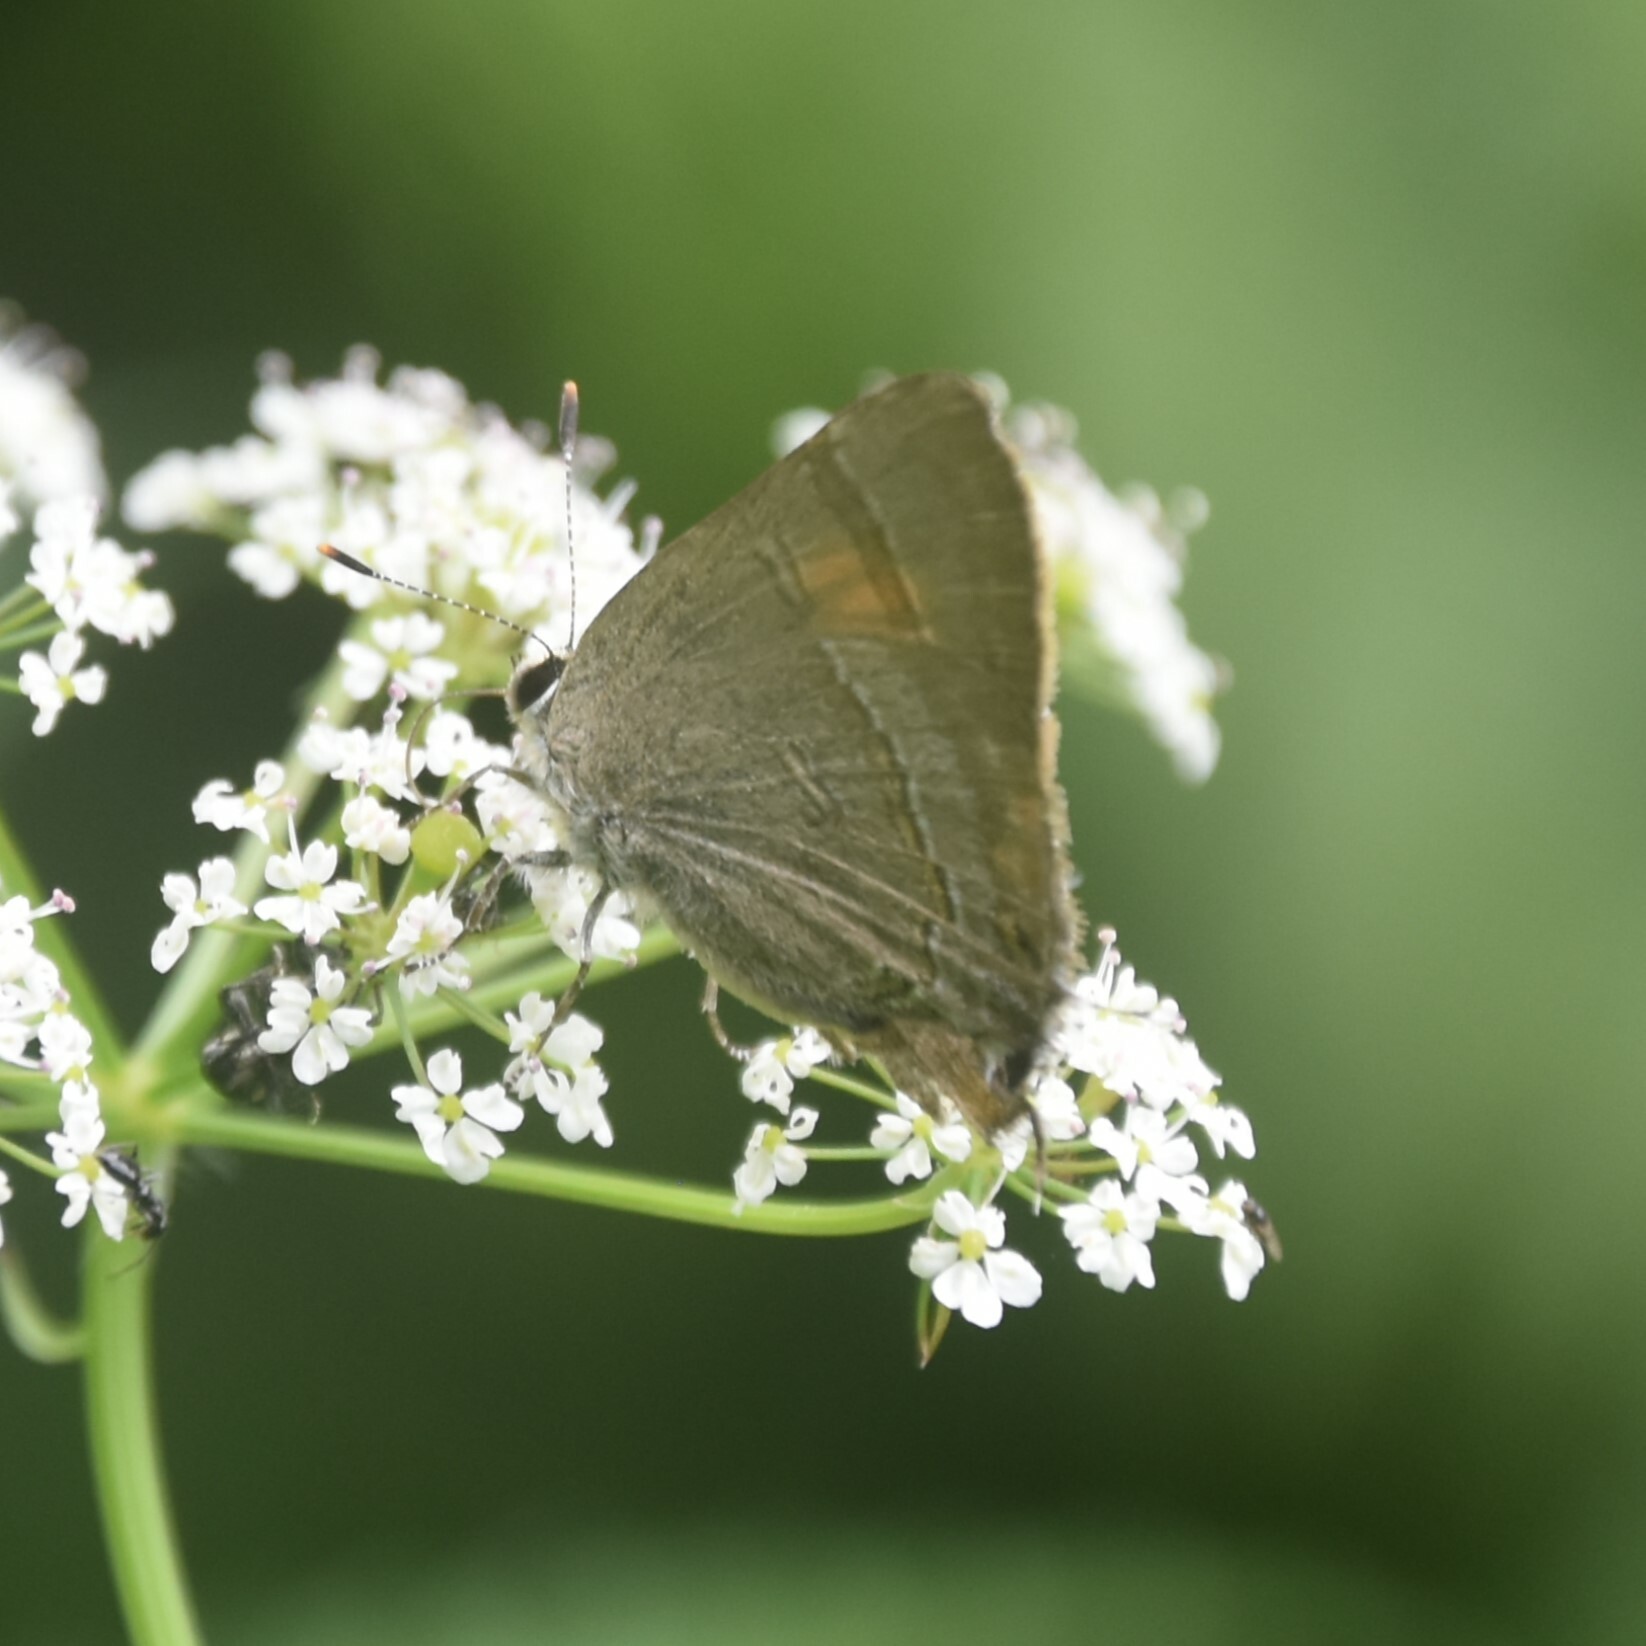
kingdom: Animalia
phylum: Arthropoda
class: Insecta
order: Lepidoptera
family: Lycaenidae
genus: Rapala
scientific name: Rapala selira
